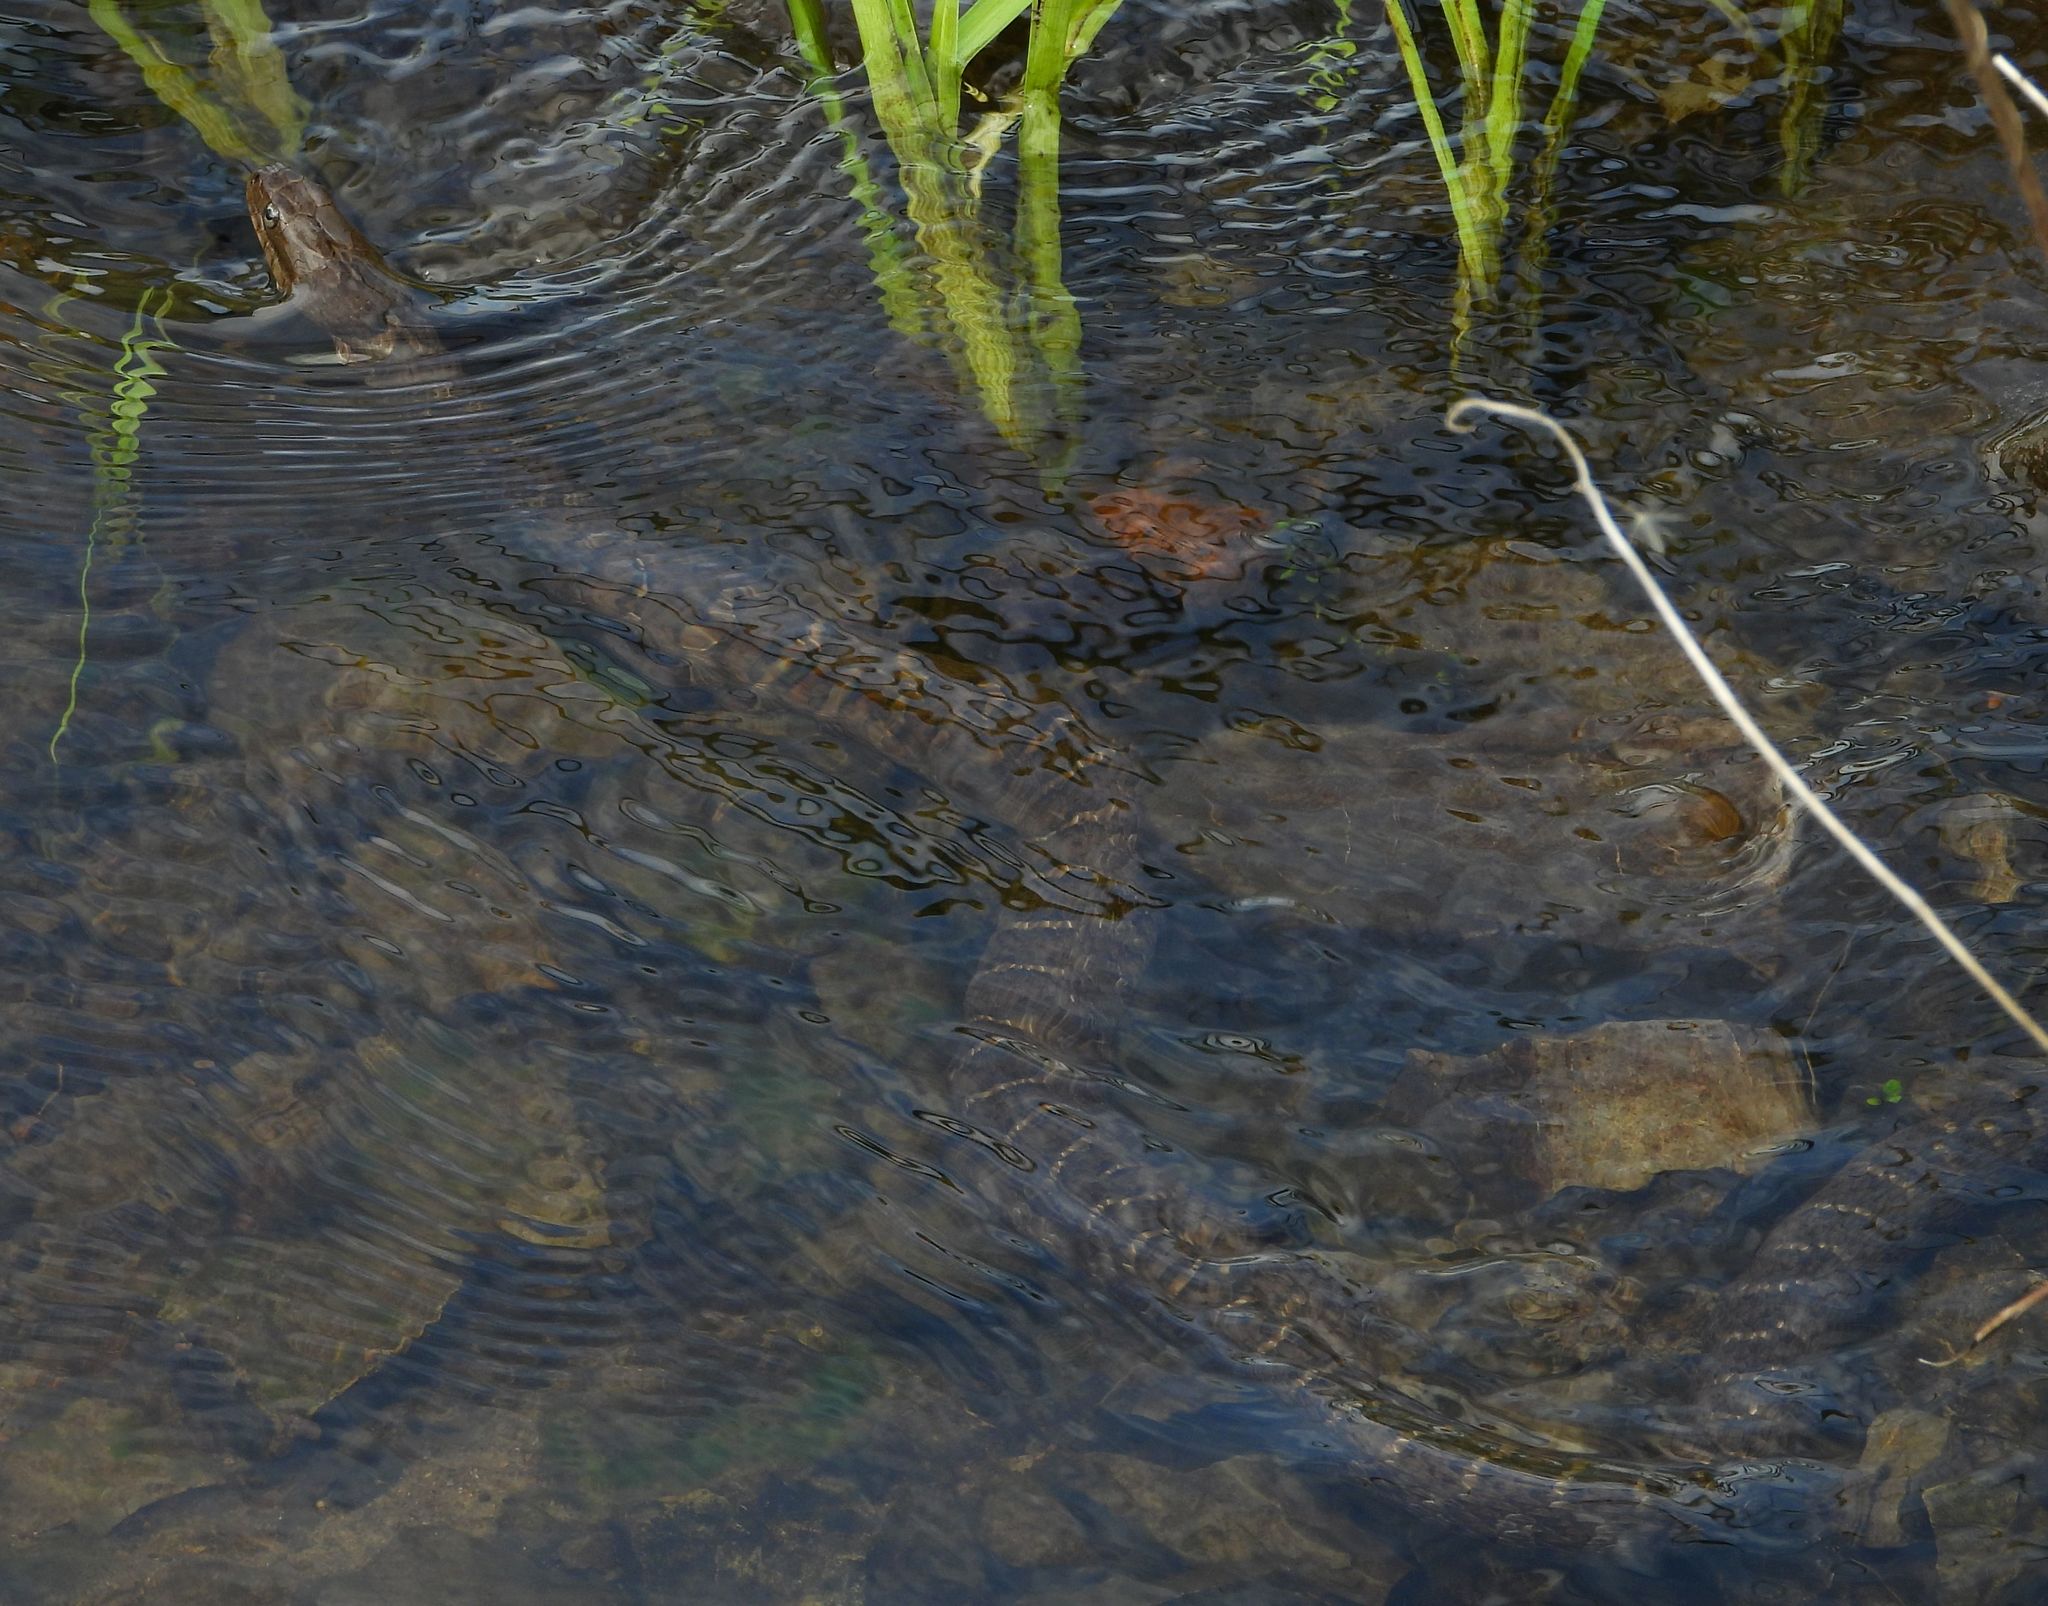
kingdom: Animalia
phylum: Chordata
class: Squamata
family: Colubridae
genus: Nerodia
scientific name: Nerodia sipedon
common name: Northern water snake
